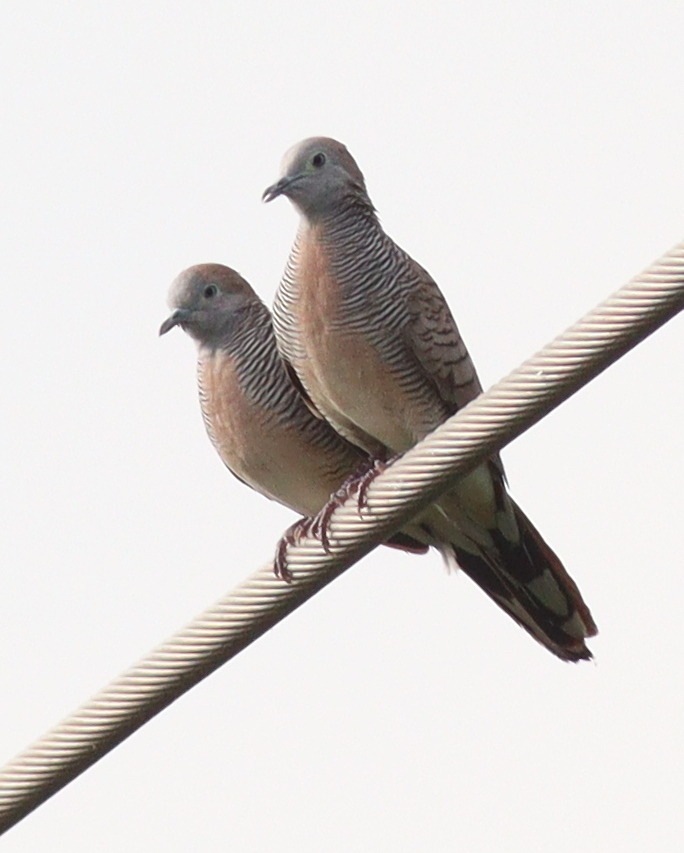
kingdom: Animalia
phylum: Chordata
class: Aves
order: Columbiformes
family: Columbidae
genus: Geopelia
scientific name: Geopelia striata
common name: Zebra dove
